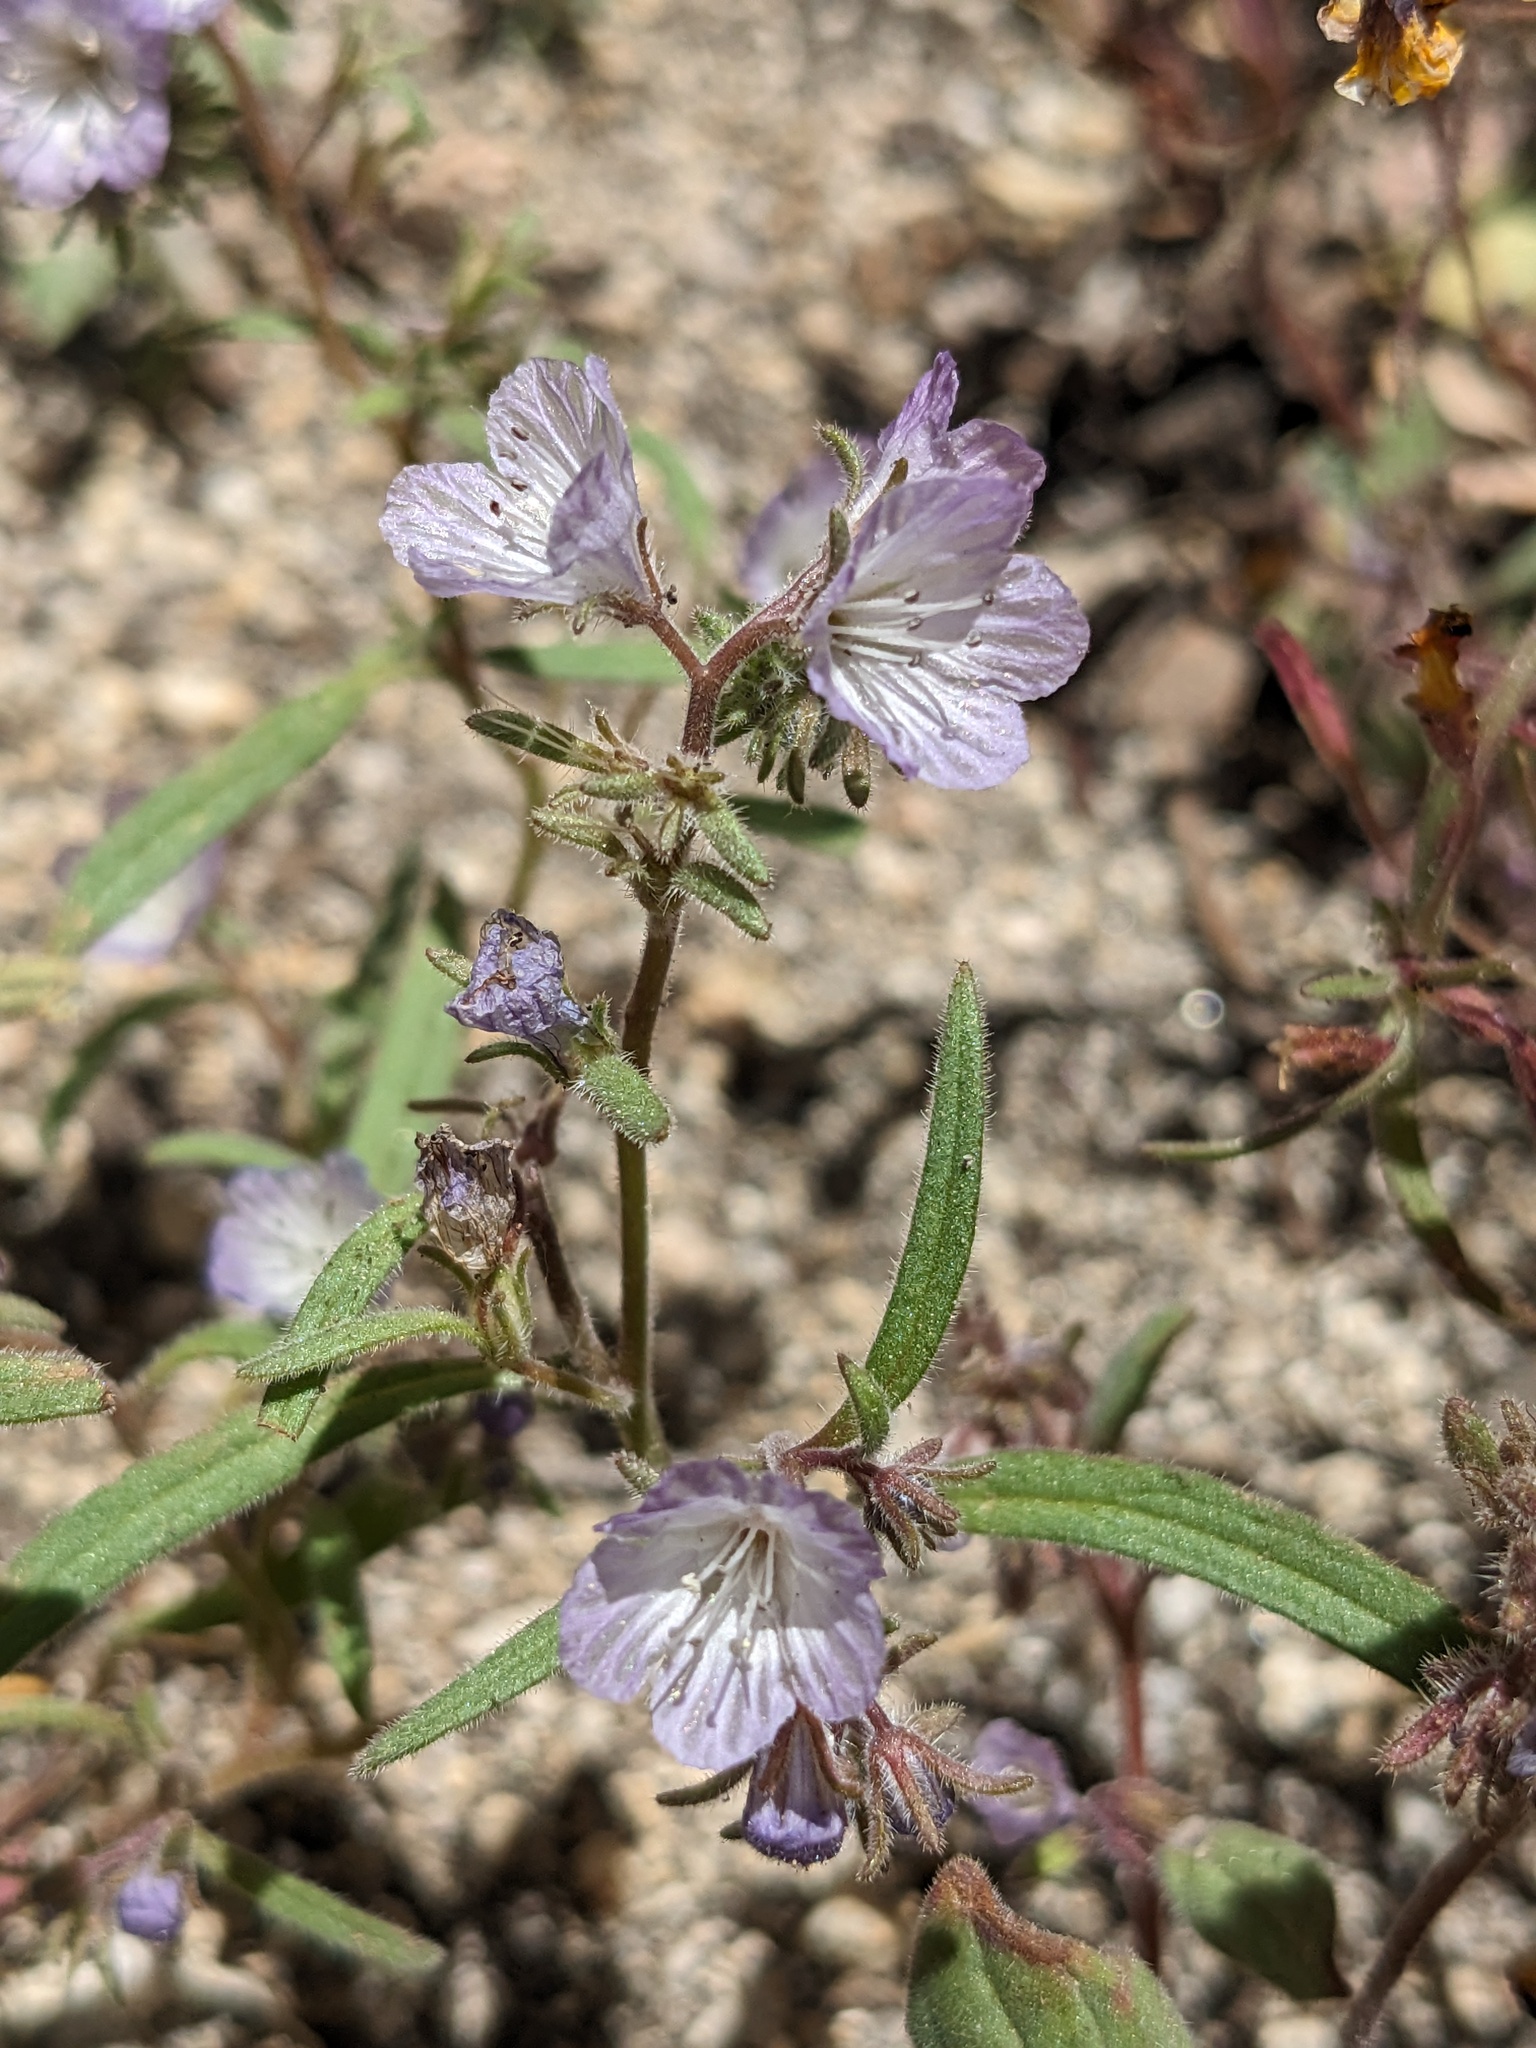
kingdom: Plantae
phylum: Tracheophyta
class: Magnoliopsida
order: Boraginales
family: Hydrophyllaceae
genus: Phacelia
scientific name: Phacelia exilis
